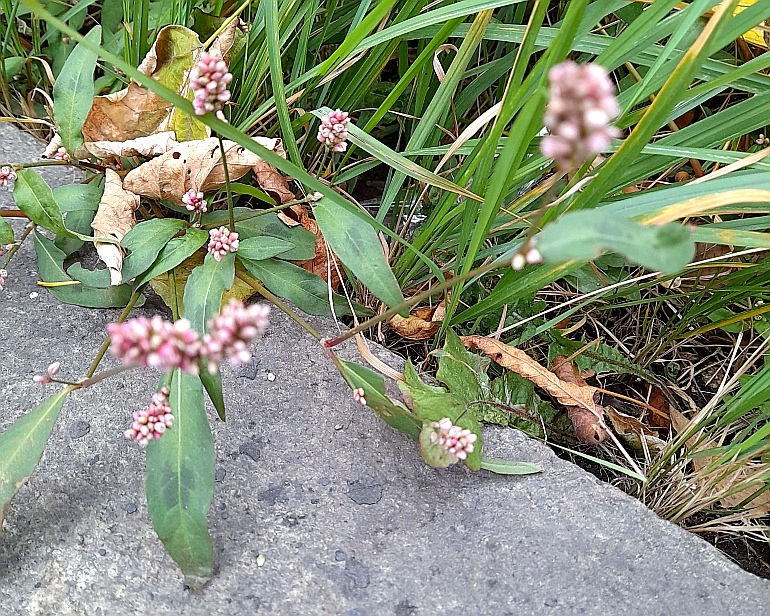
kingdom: Plantae
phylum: Tracheophyta
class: Magnoliopsida
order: Caryophyllales
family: Polygonaceae
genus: Persicaria
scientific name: Persicaria maculosa
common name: Redshank
